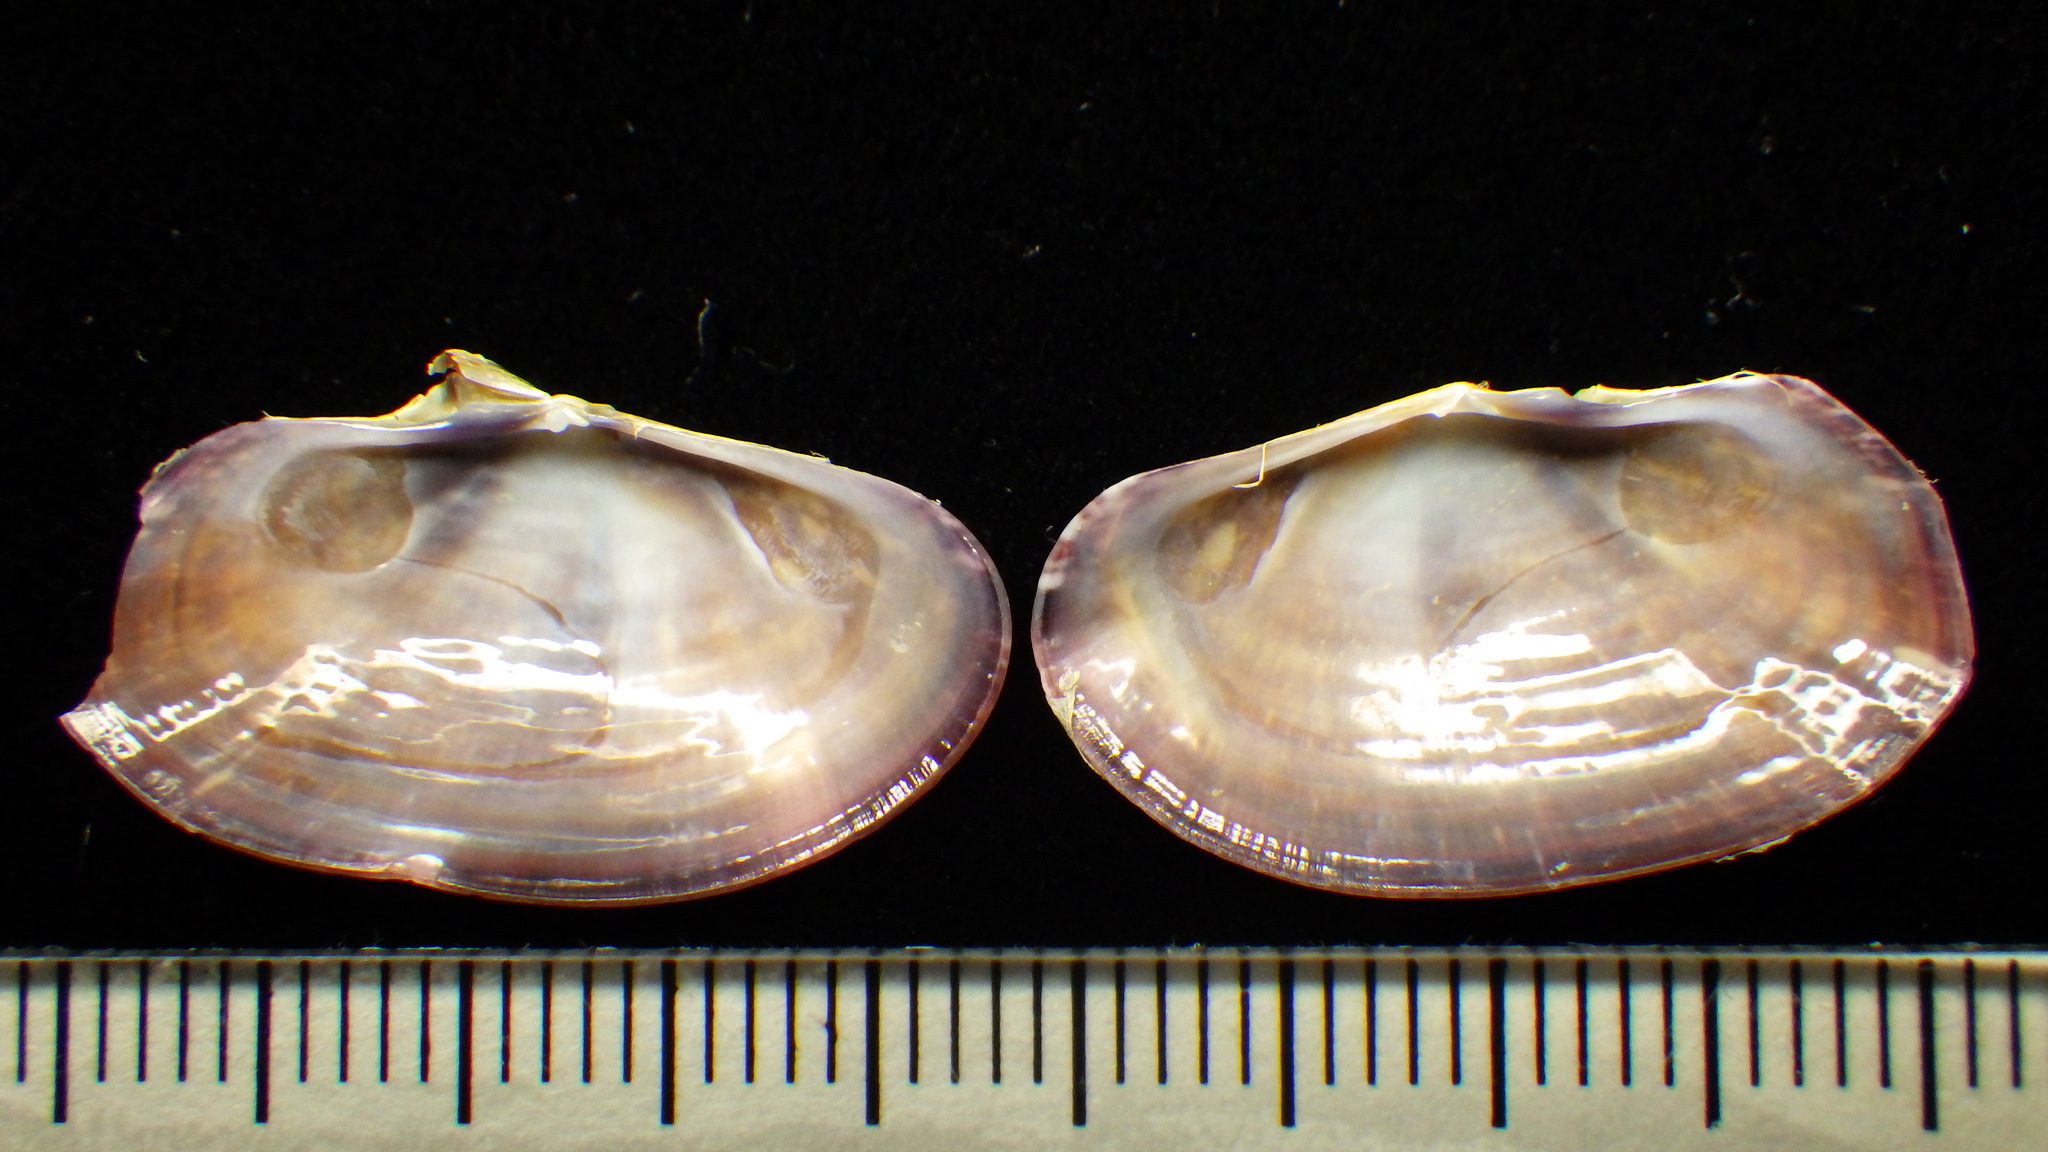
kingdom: Animalia
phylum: Mollusca
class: Bivalvia
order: Cardiida
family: Psammobiidae
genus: Gari
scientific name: Gari truncata
